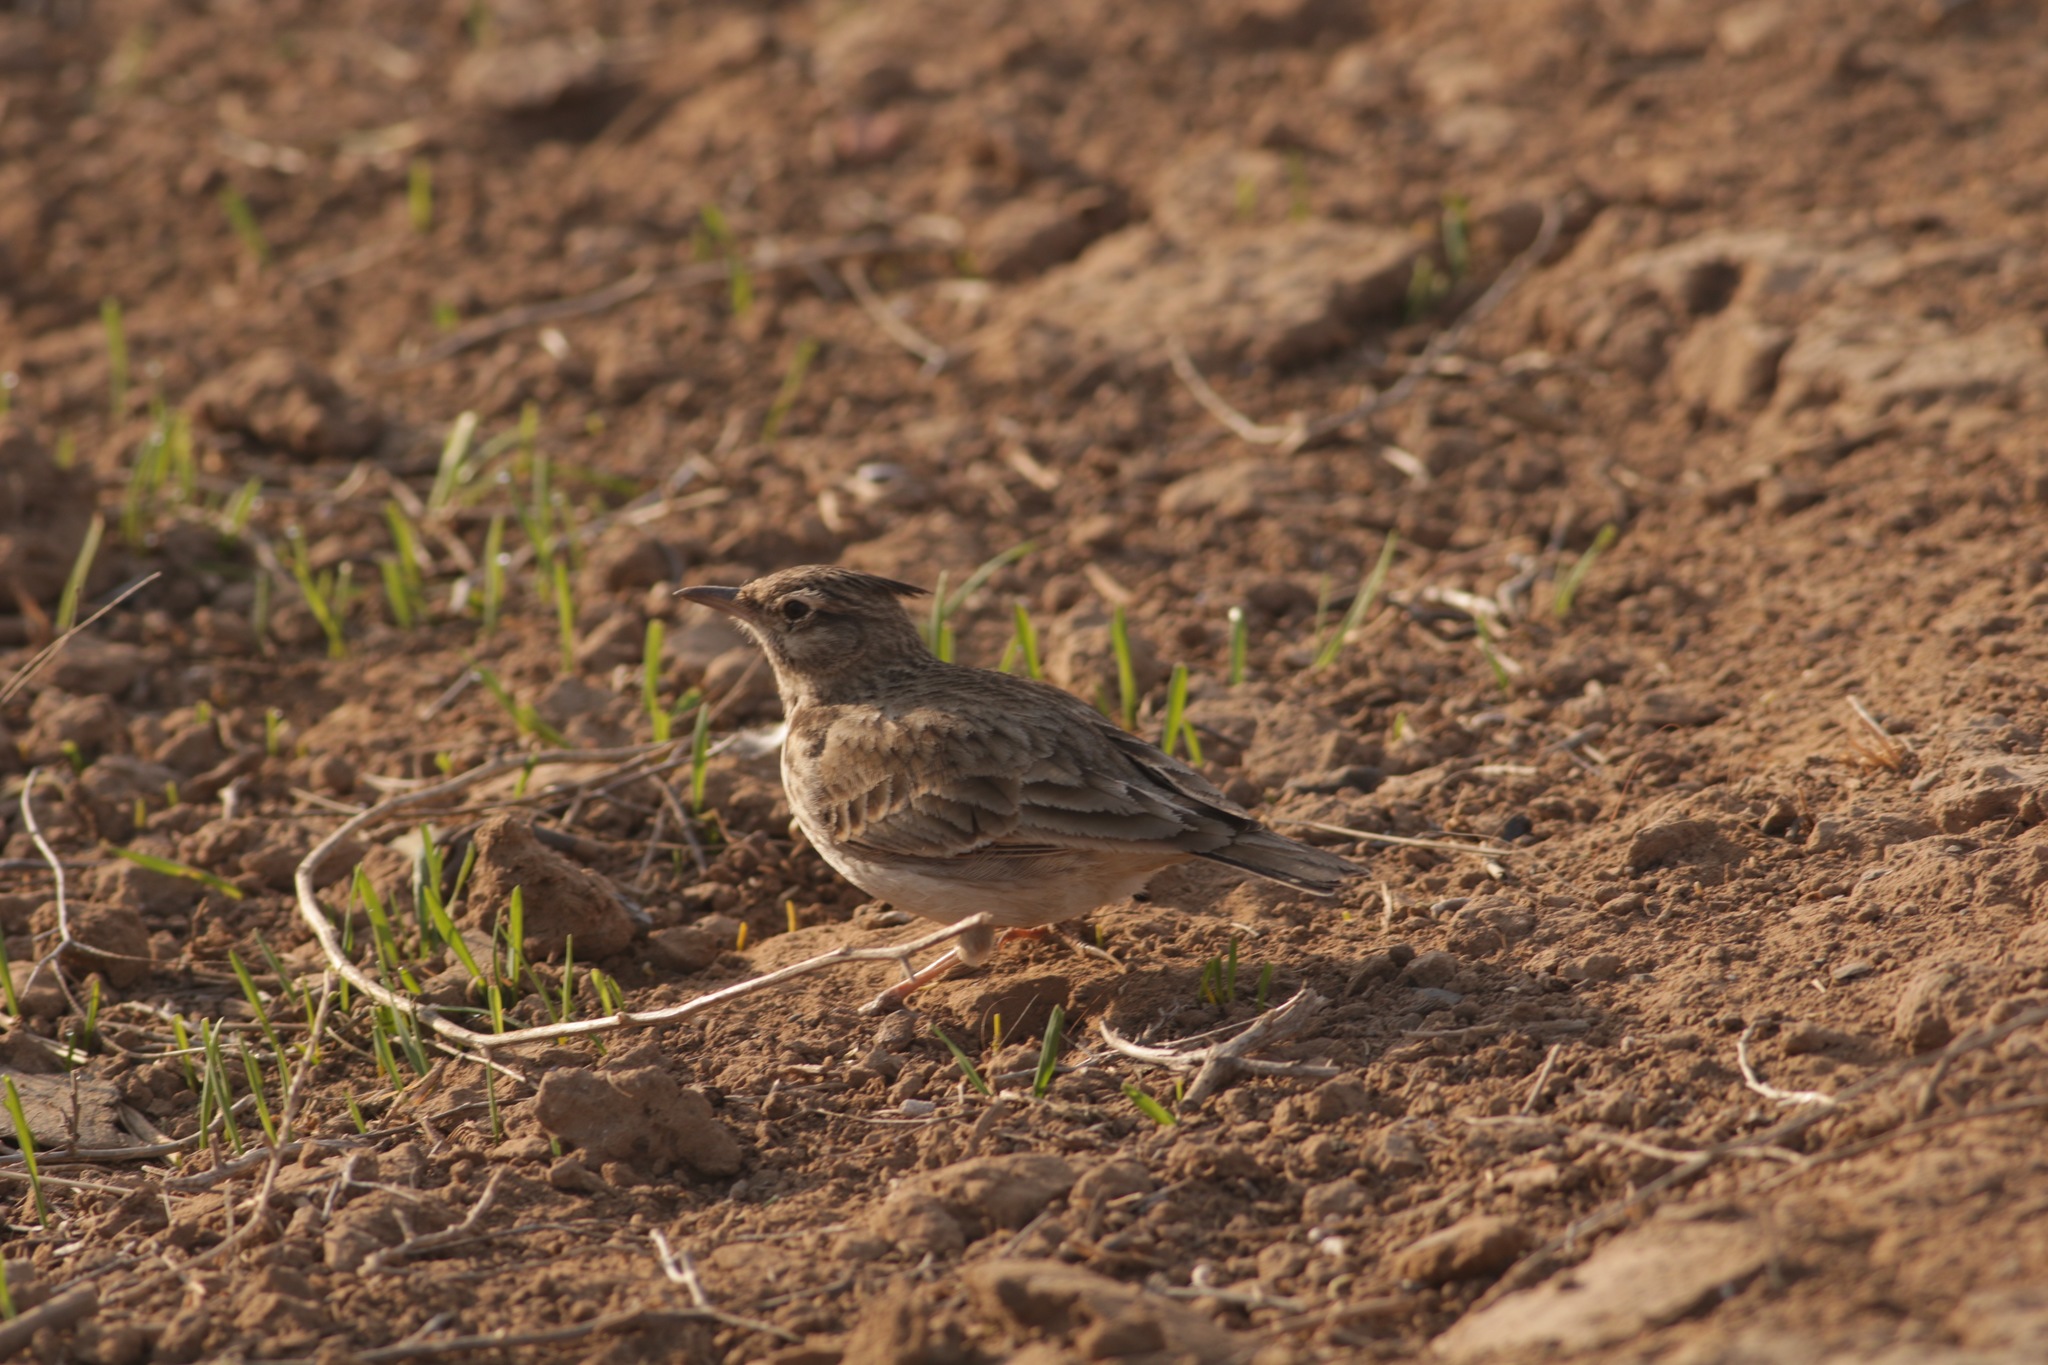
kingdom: Animalia
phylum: Chordata
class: Aves
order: Passeriformes
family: Alaudidae
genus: Galerida
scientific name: Galerida cristata
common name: Crested lark
